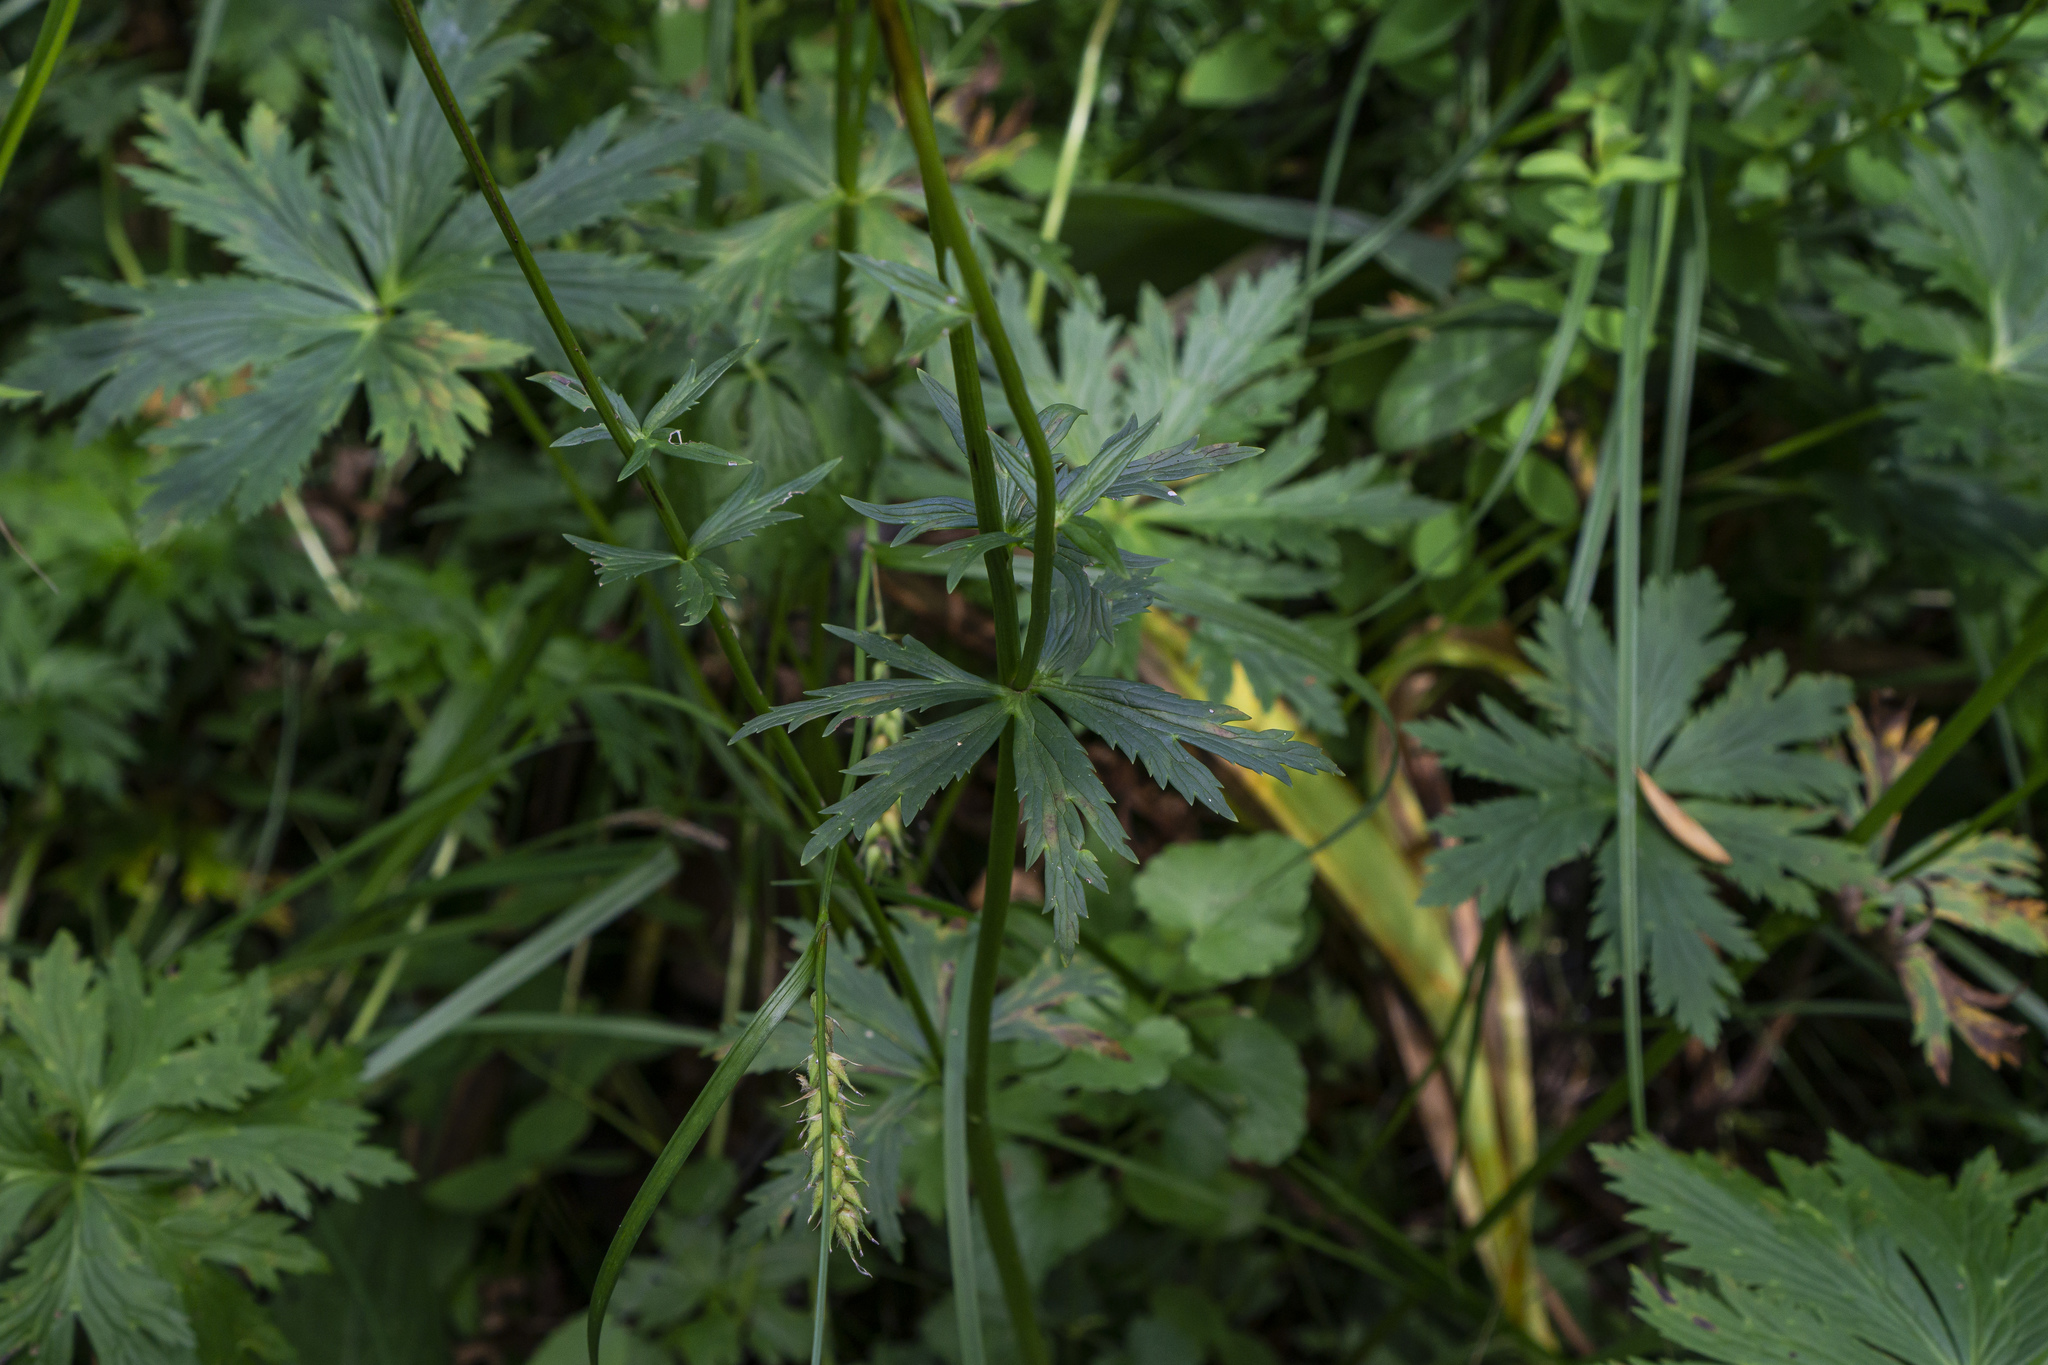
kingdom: Plantae
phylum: Tracheophyta
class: Magnoliopsida
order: Ranunculales
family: Ranunculaceae
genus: Trollius
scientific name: Trollius europaeus
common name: European globeflower
